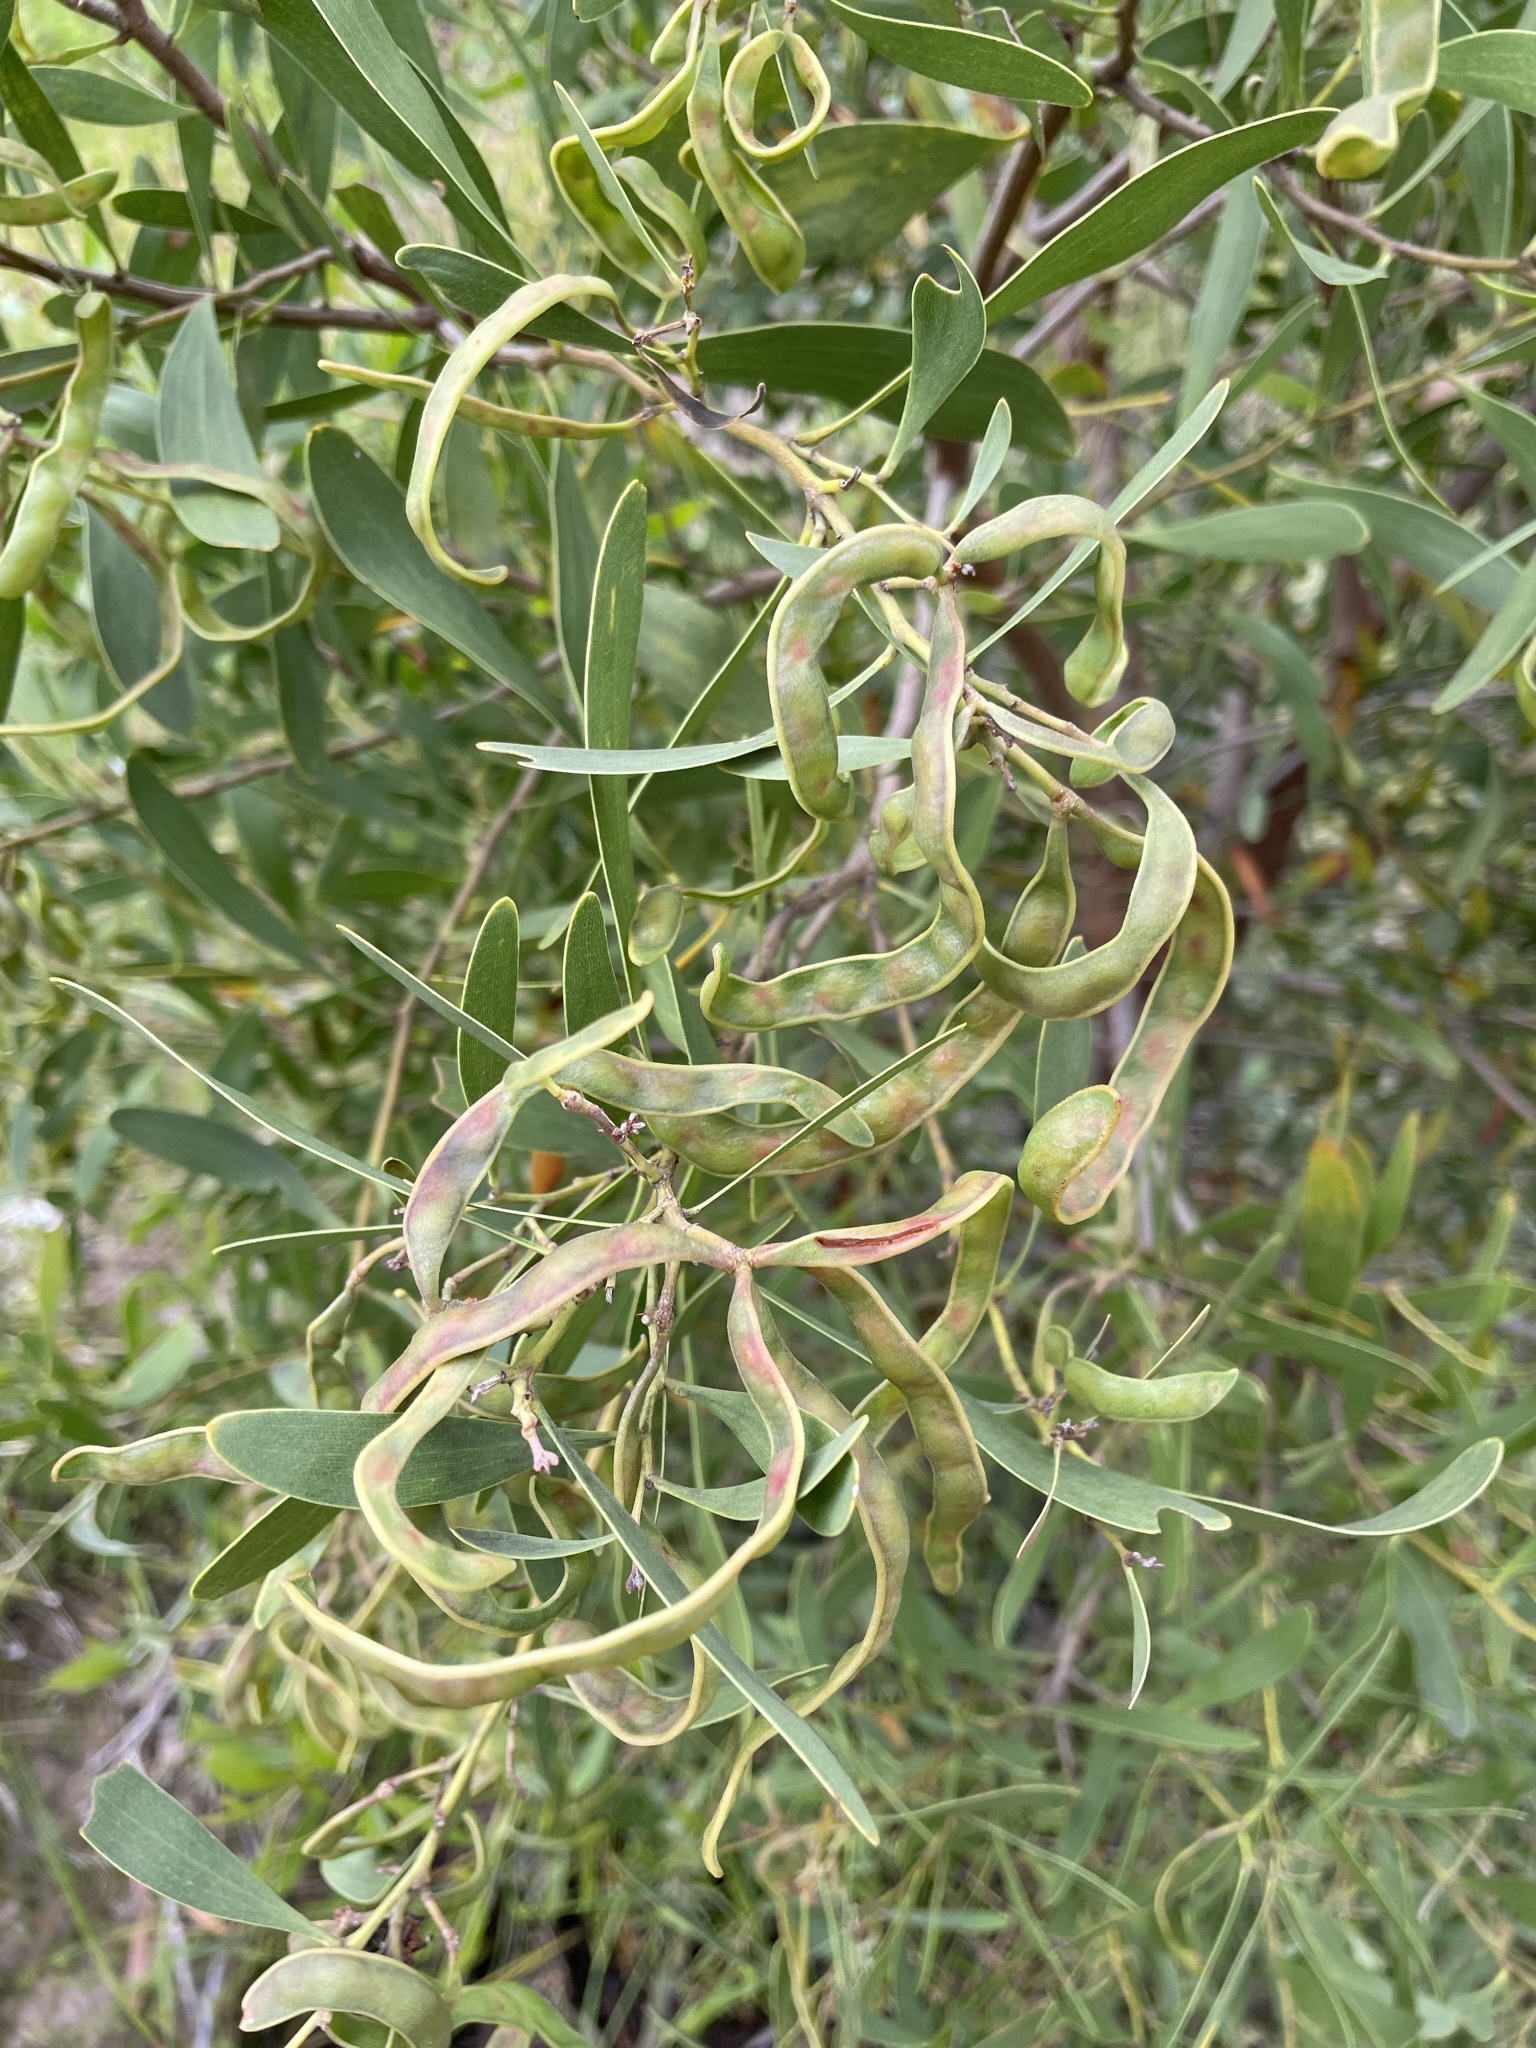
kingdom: Plantae
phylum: Tracheophyta
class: Magnoliopsida
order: Fabales
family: Fabaceae
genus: Acacia
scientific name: Acacia melanoxylon
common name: Blackwood
